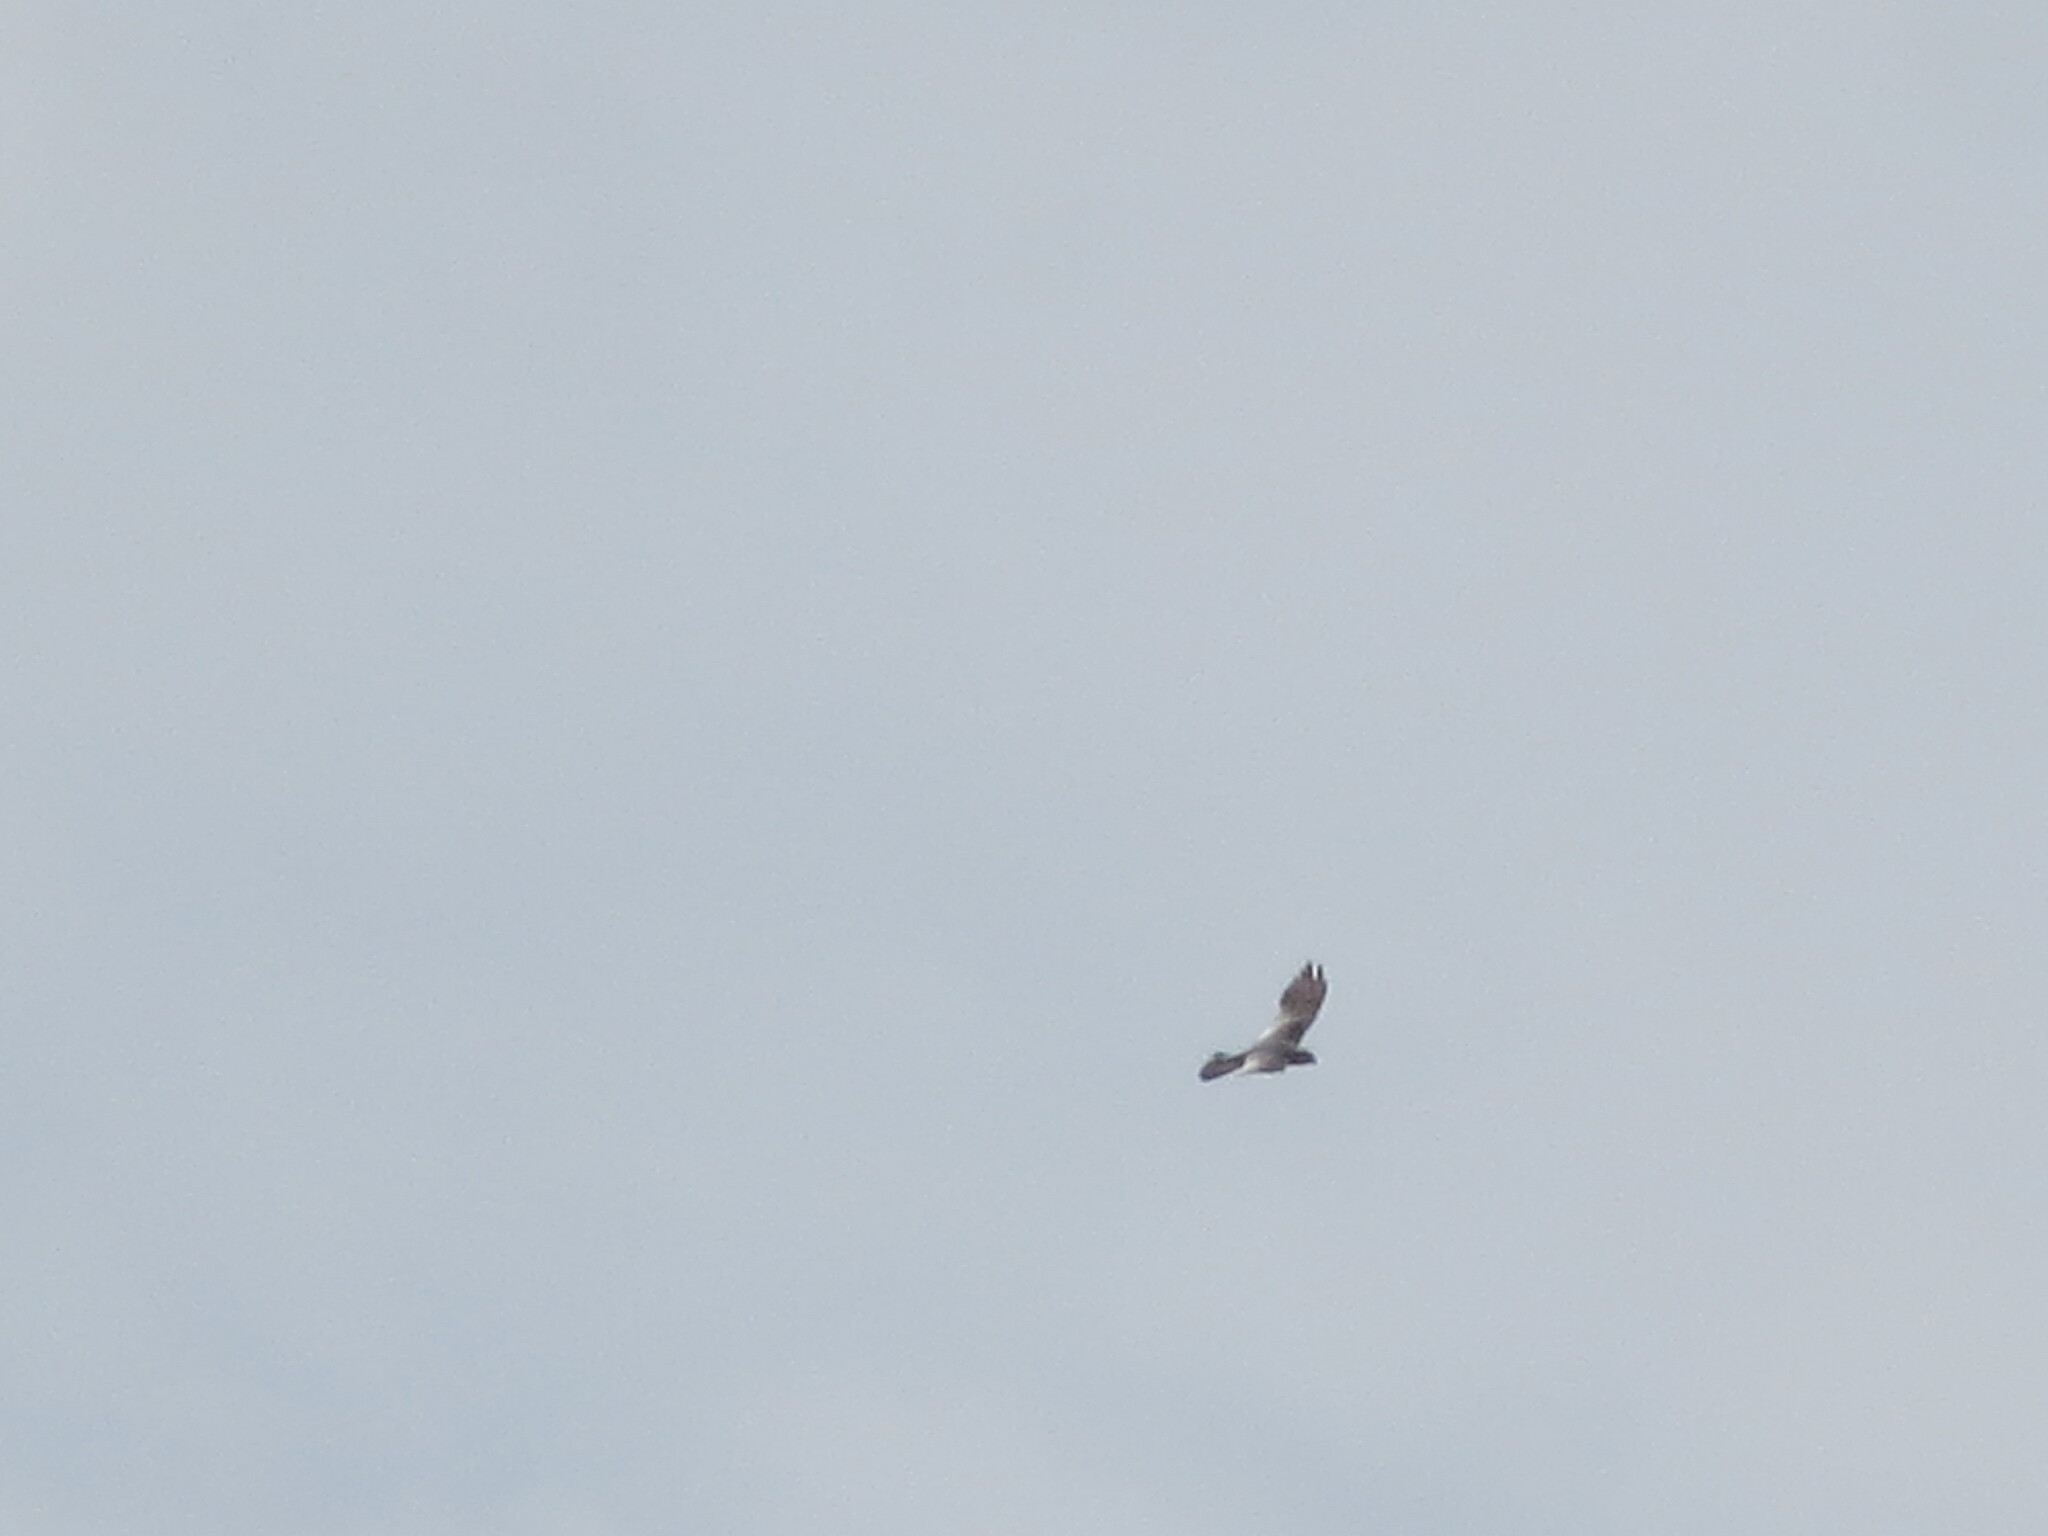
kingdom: Animalia
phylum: Chordata
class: Aves
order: Accipitriformes
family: Accipitridae
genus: Ictinia
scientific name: Ictinia mississippiensis
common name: Mississippi kite
